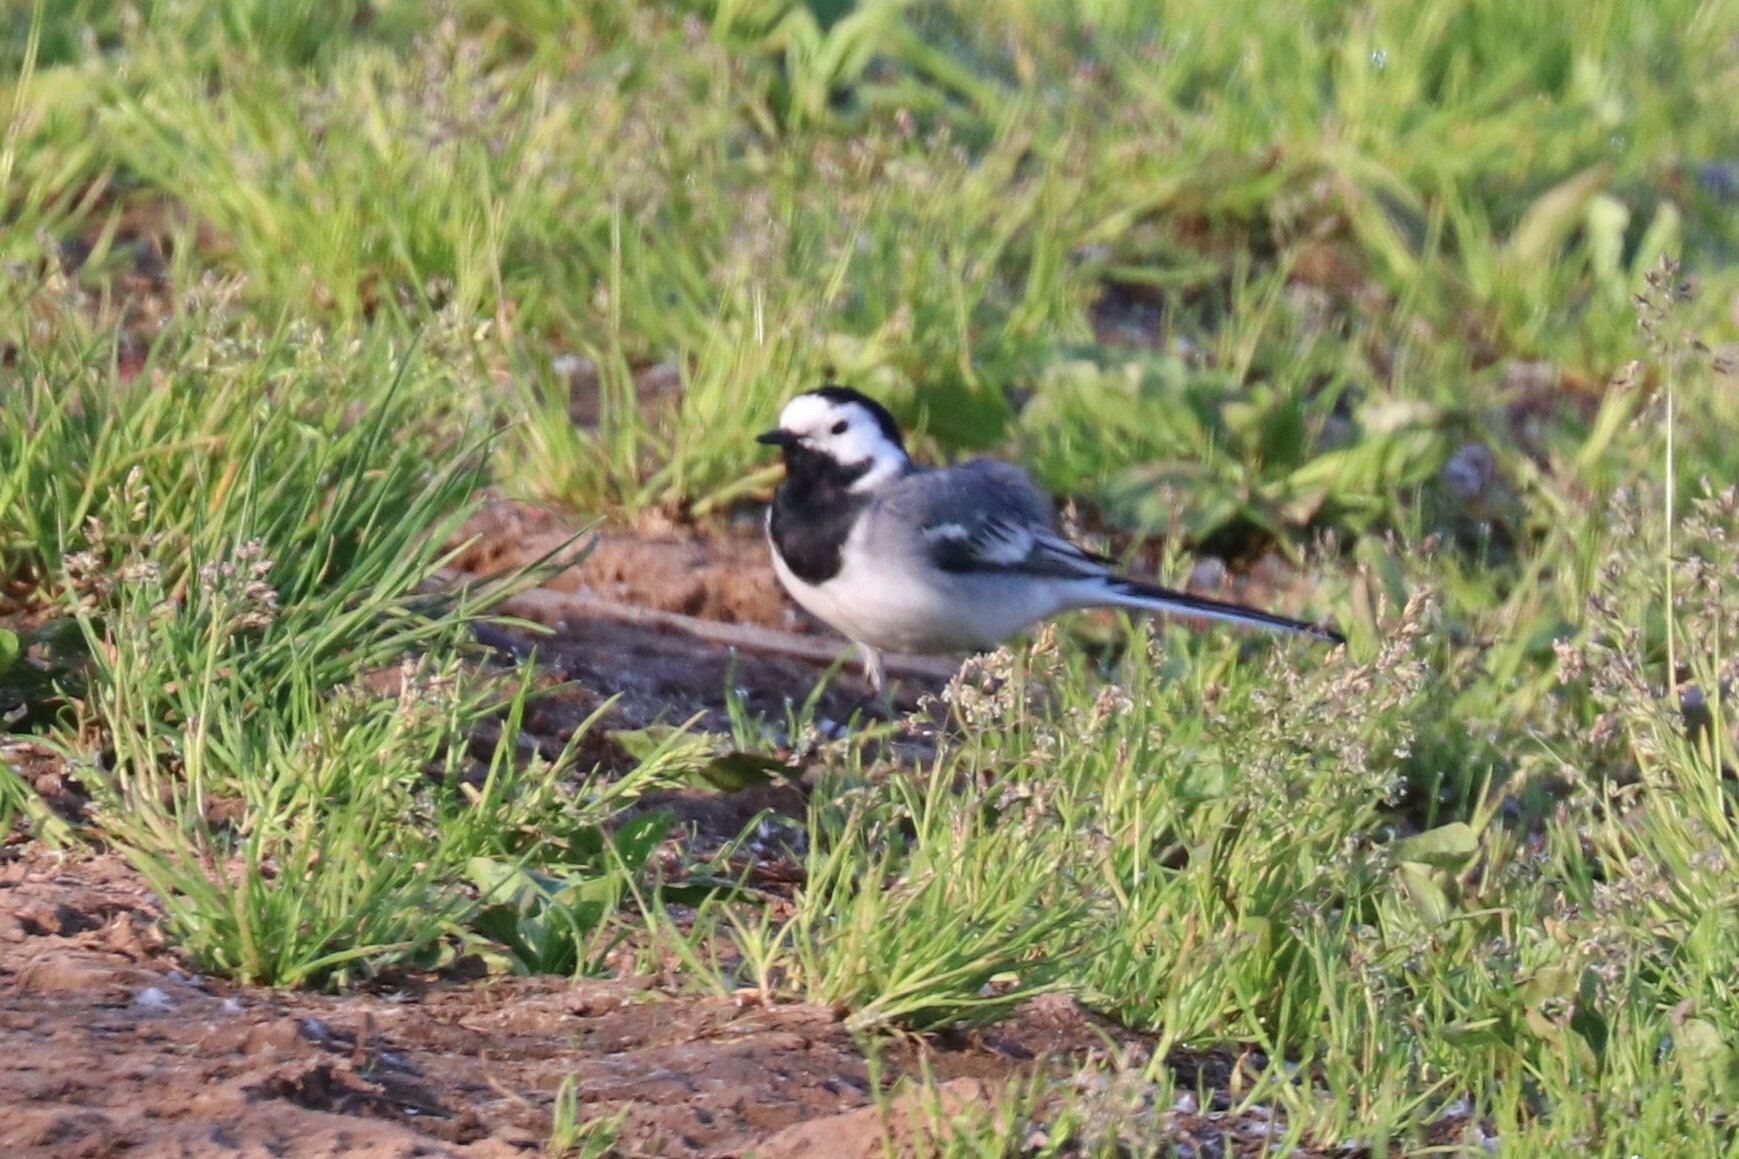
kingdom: Animalia
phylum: Chordata
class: Aves
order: Passeriformes
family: Motacillidae
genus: Motacilla
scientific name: Motacilla alba
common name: White wagtail
